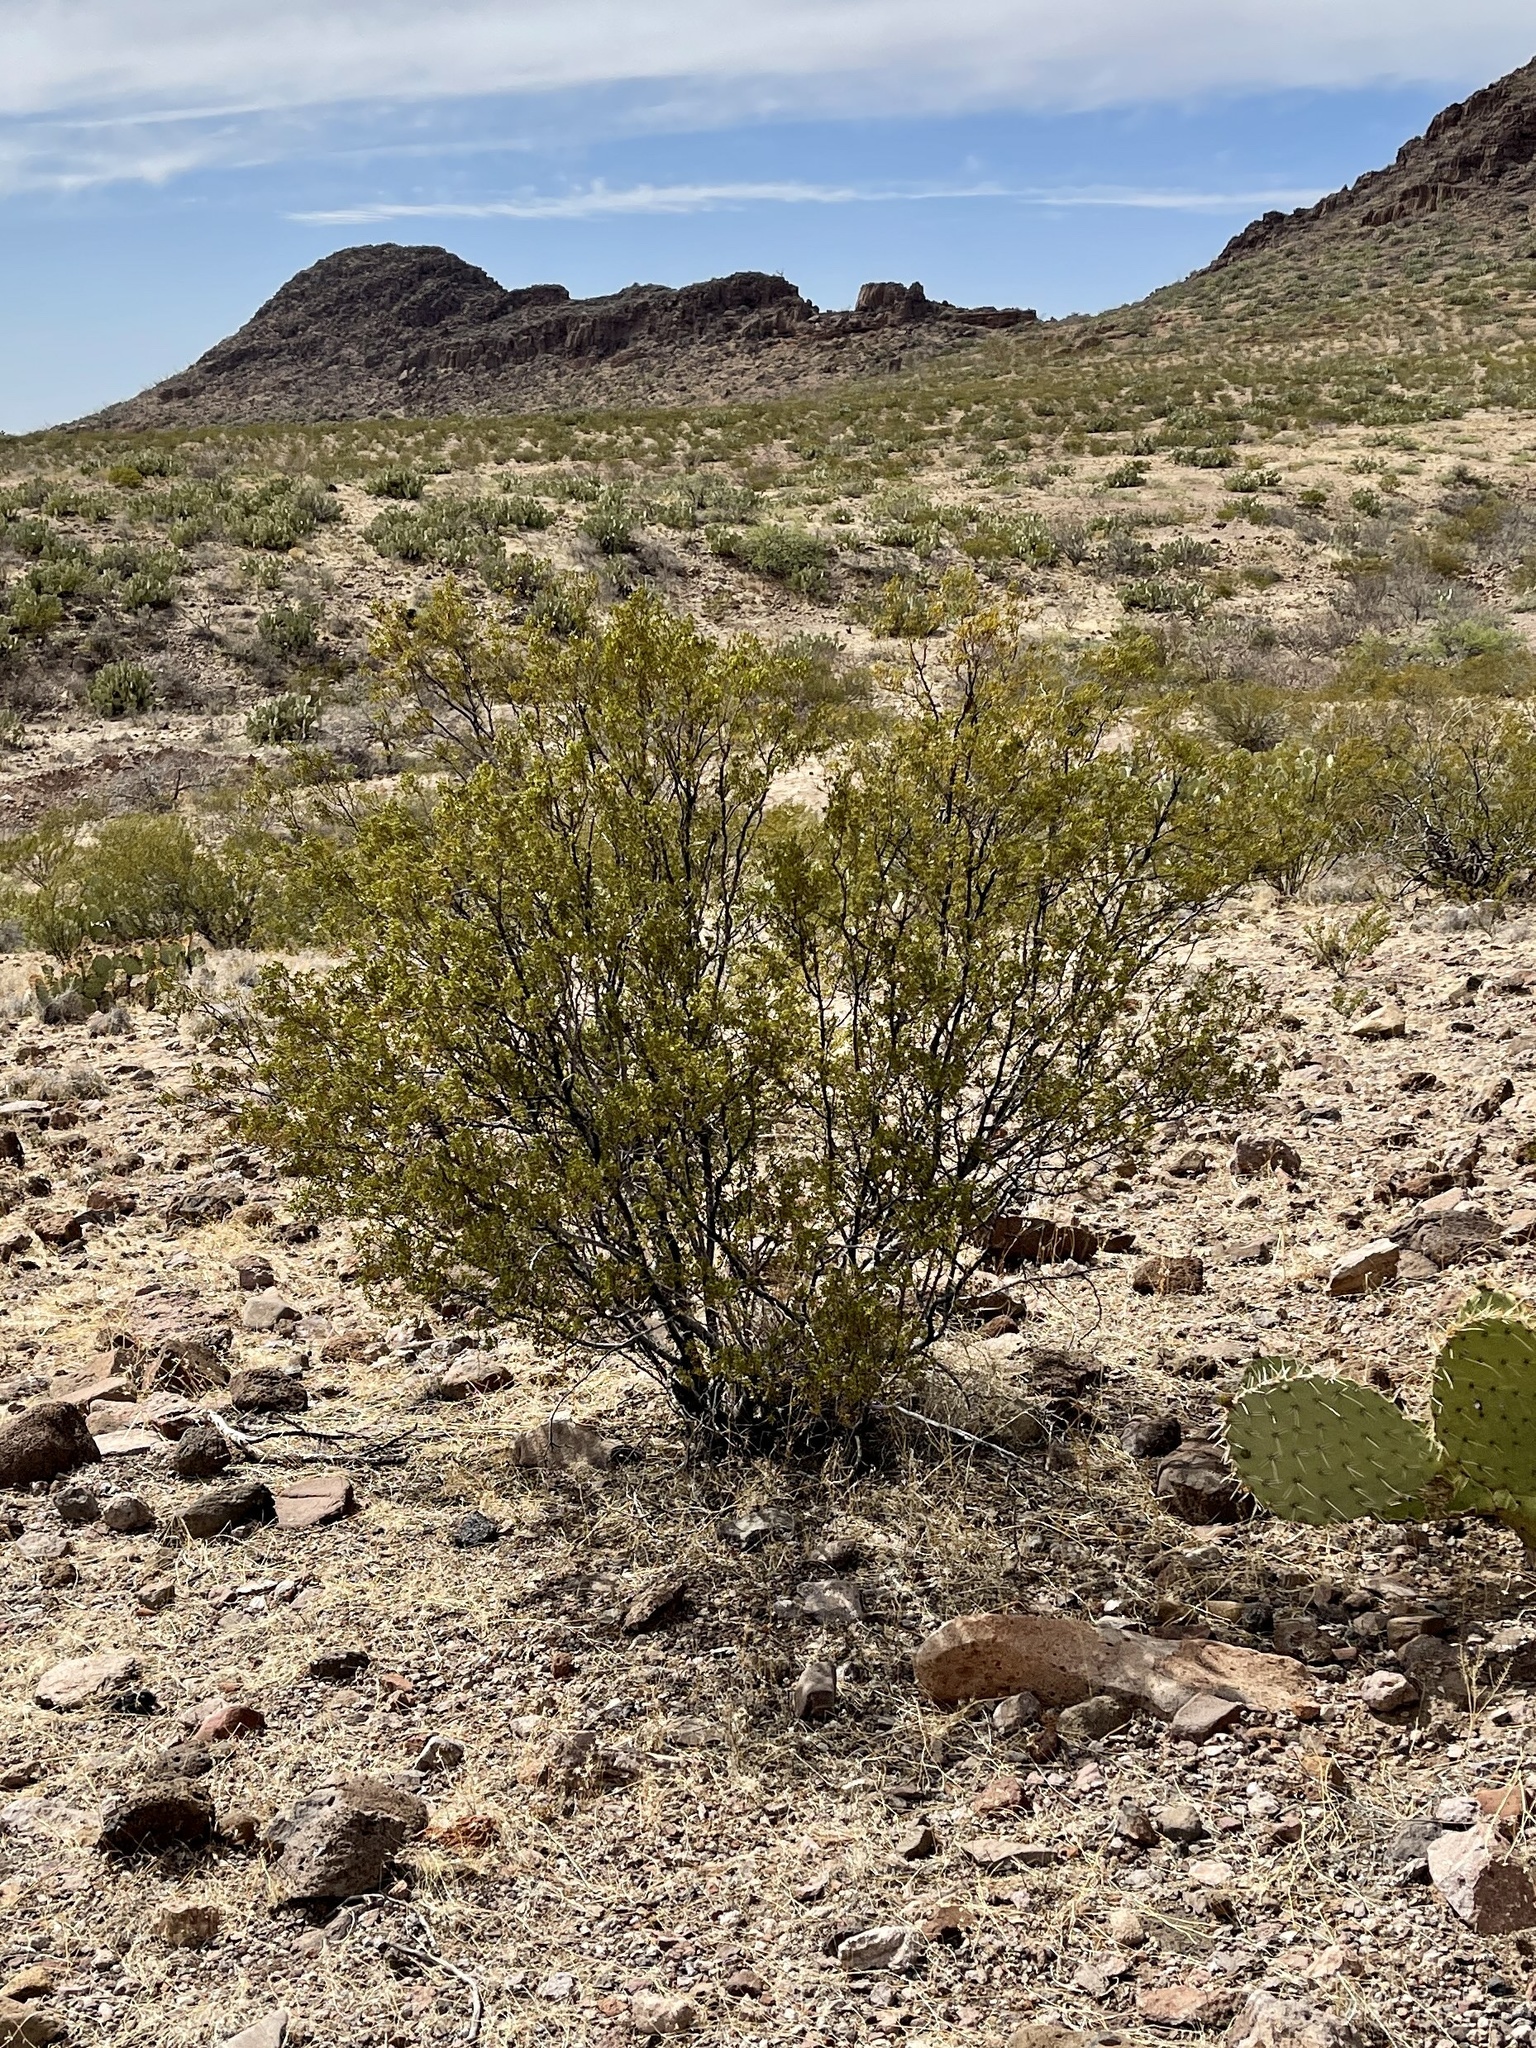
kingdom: Plantae
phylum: Tracheophyta
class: Magnoliopsida
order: Zygophyllales
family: Zygophyllaceae
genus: Larrea
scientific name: Larrea tridentata
